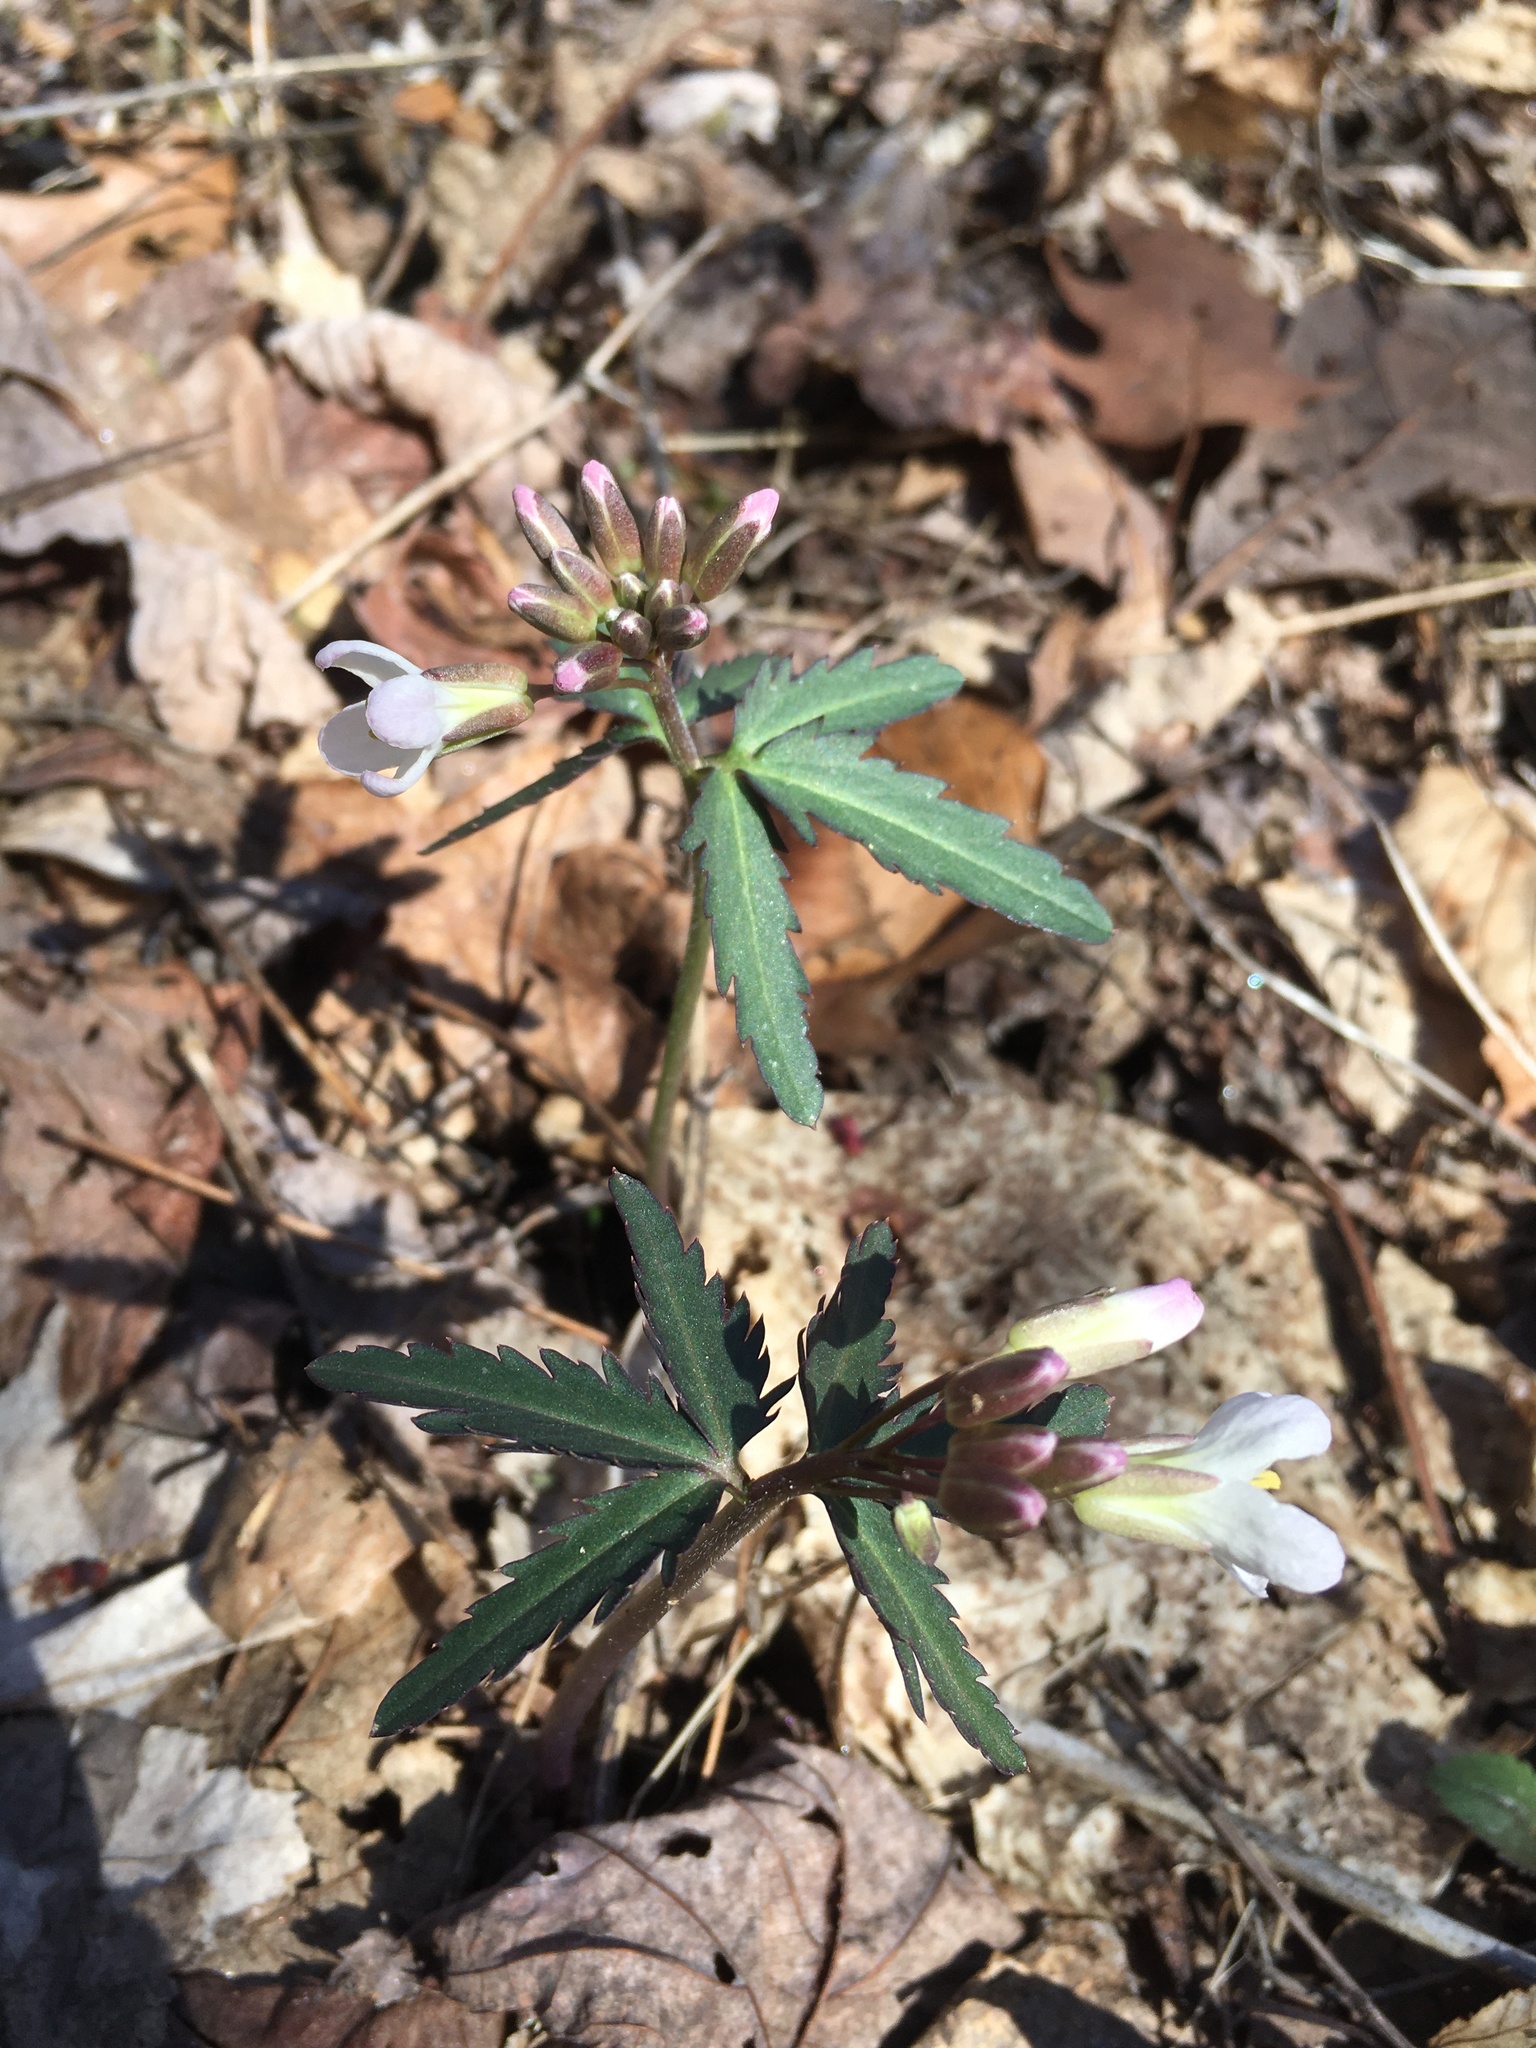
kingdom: Plantae
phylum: Tracheophyta
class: Magnoliopsida
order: Brassicales
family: Brassicaceae
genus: Cardamine
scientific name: Cardamine concatenata
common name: Cut-leaf toothcup
